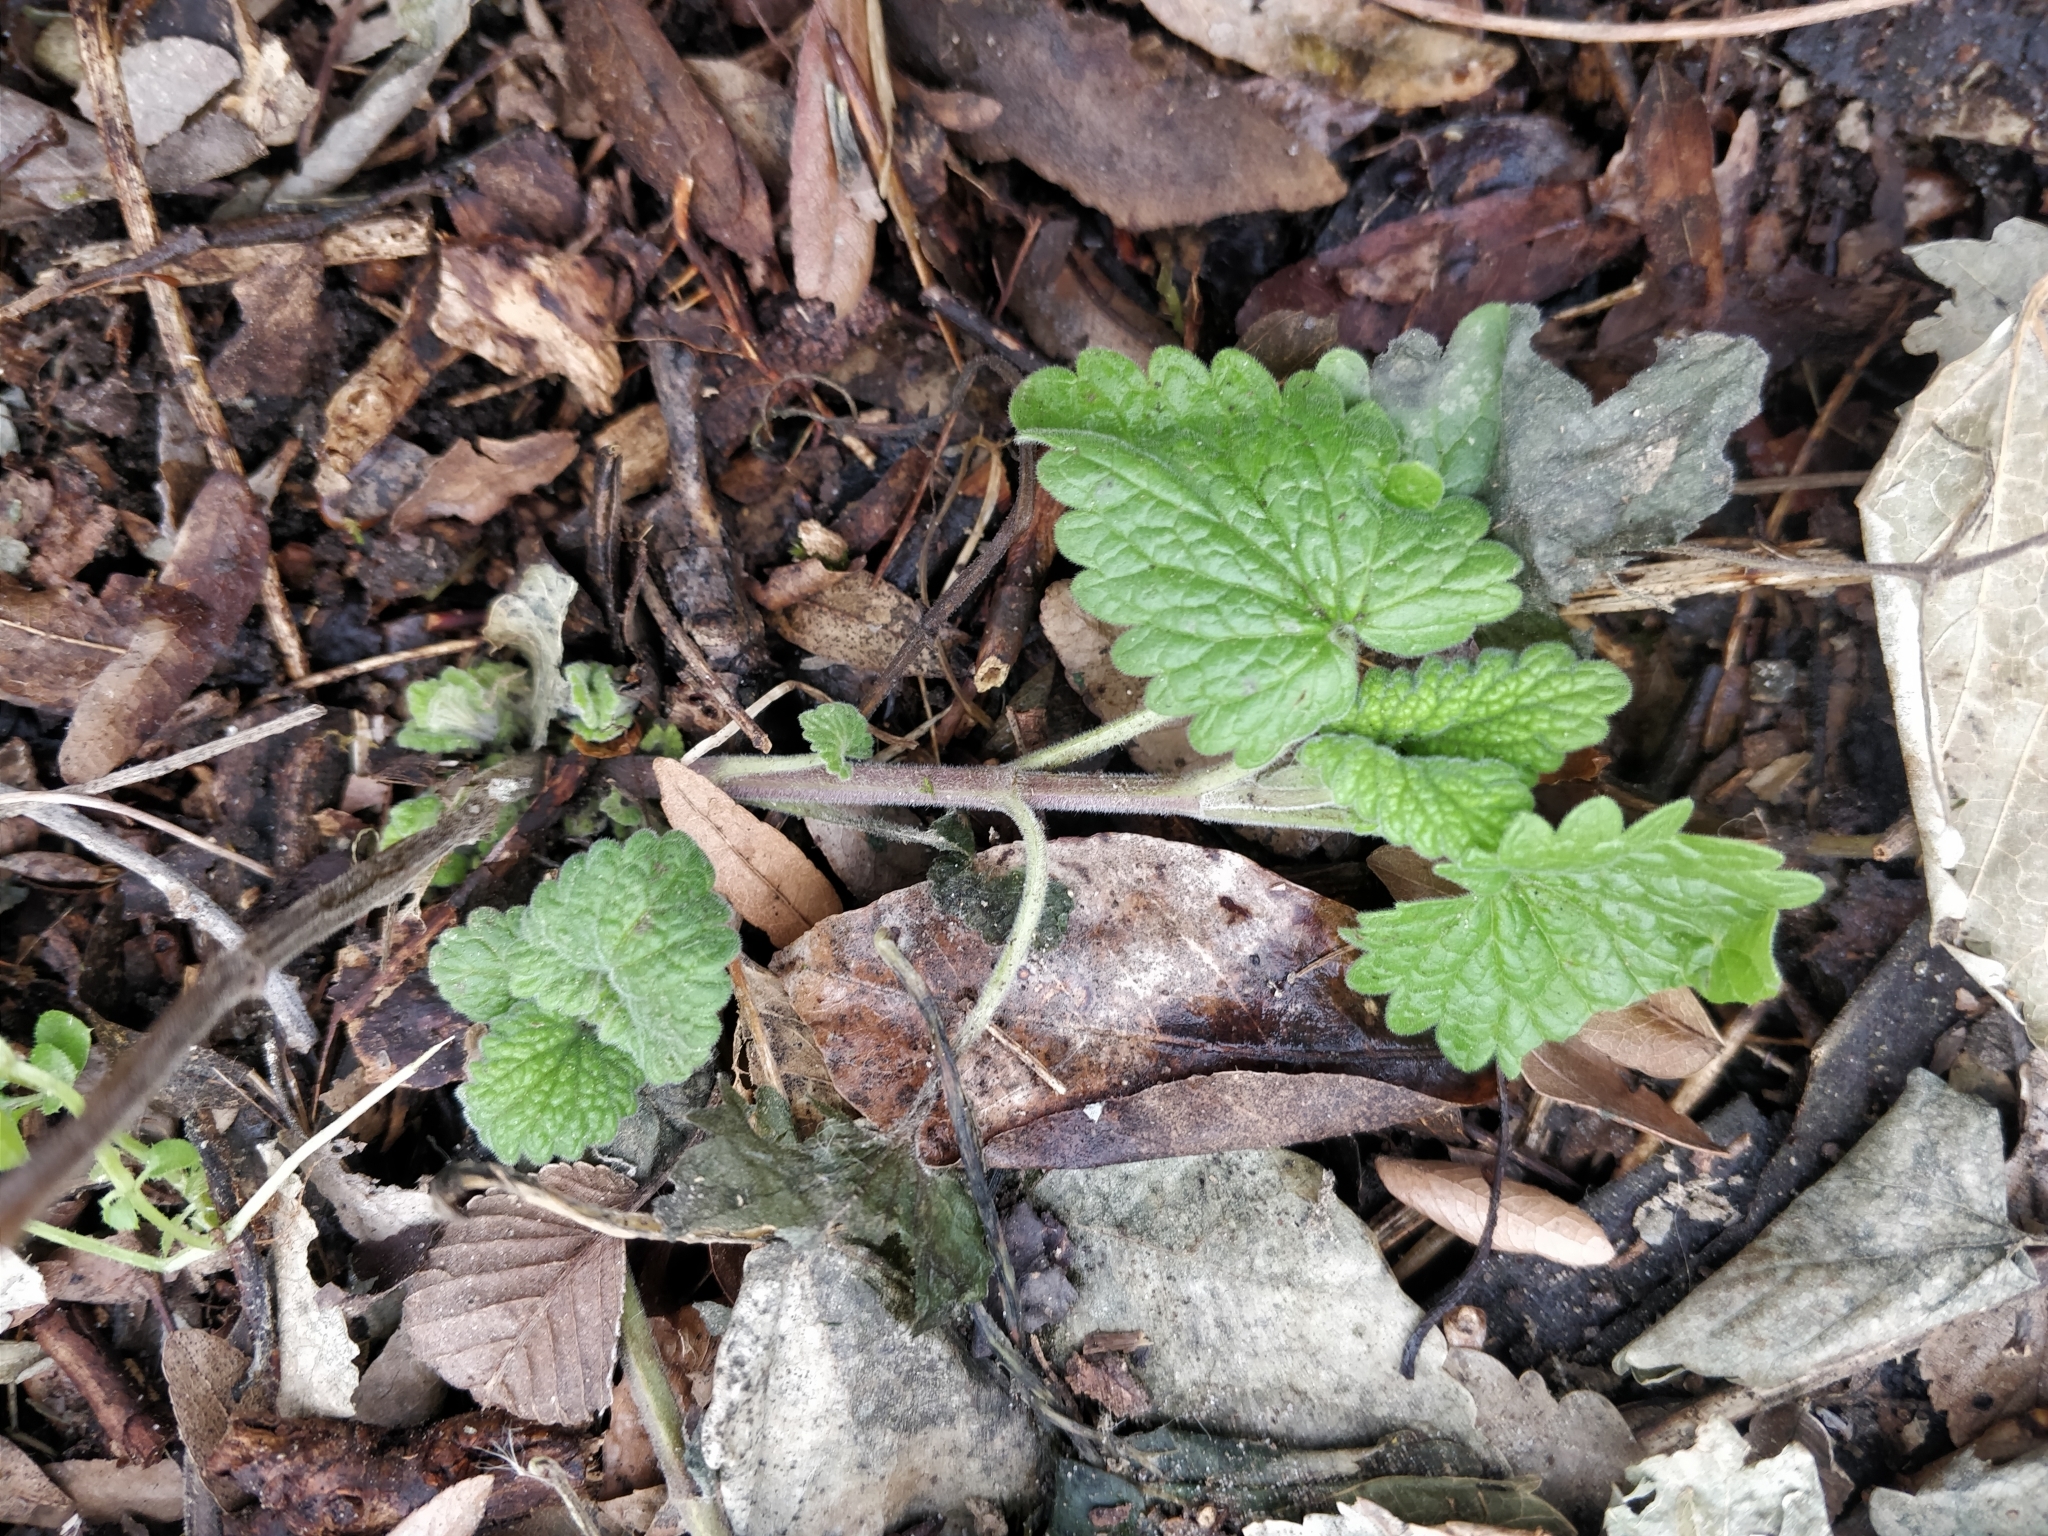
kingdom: Plantae
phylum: Tracheophyta
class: Magnoliopsida
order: Lamiales
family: Lamiaceae
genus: Nepeta
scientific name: Nepeta cataria
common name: Catnip
